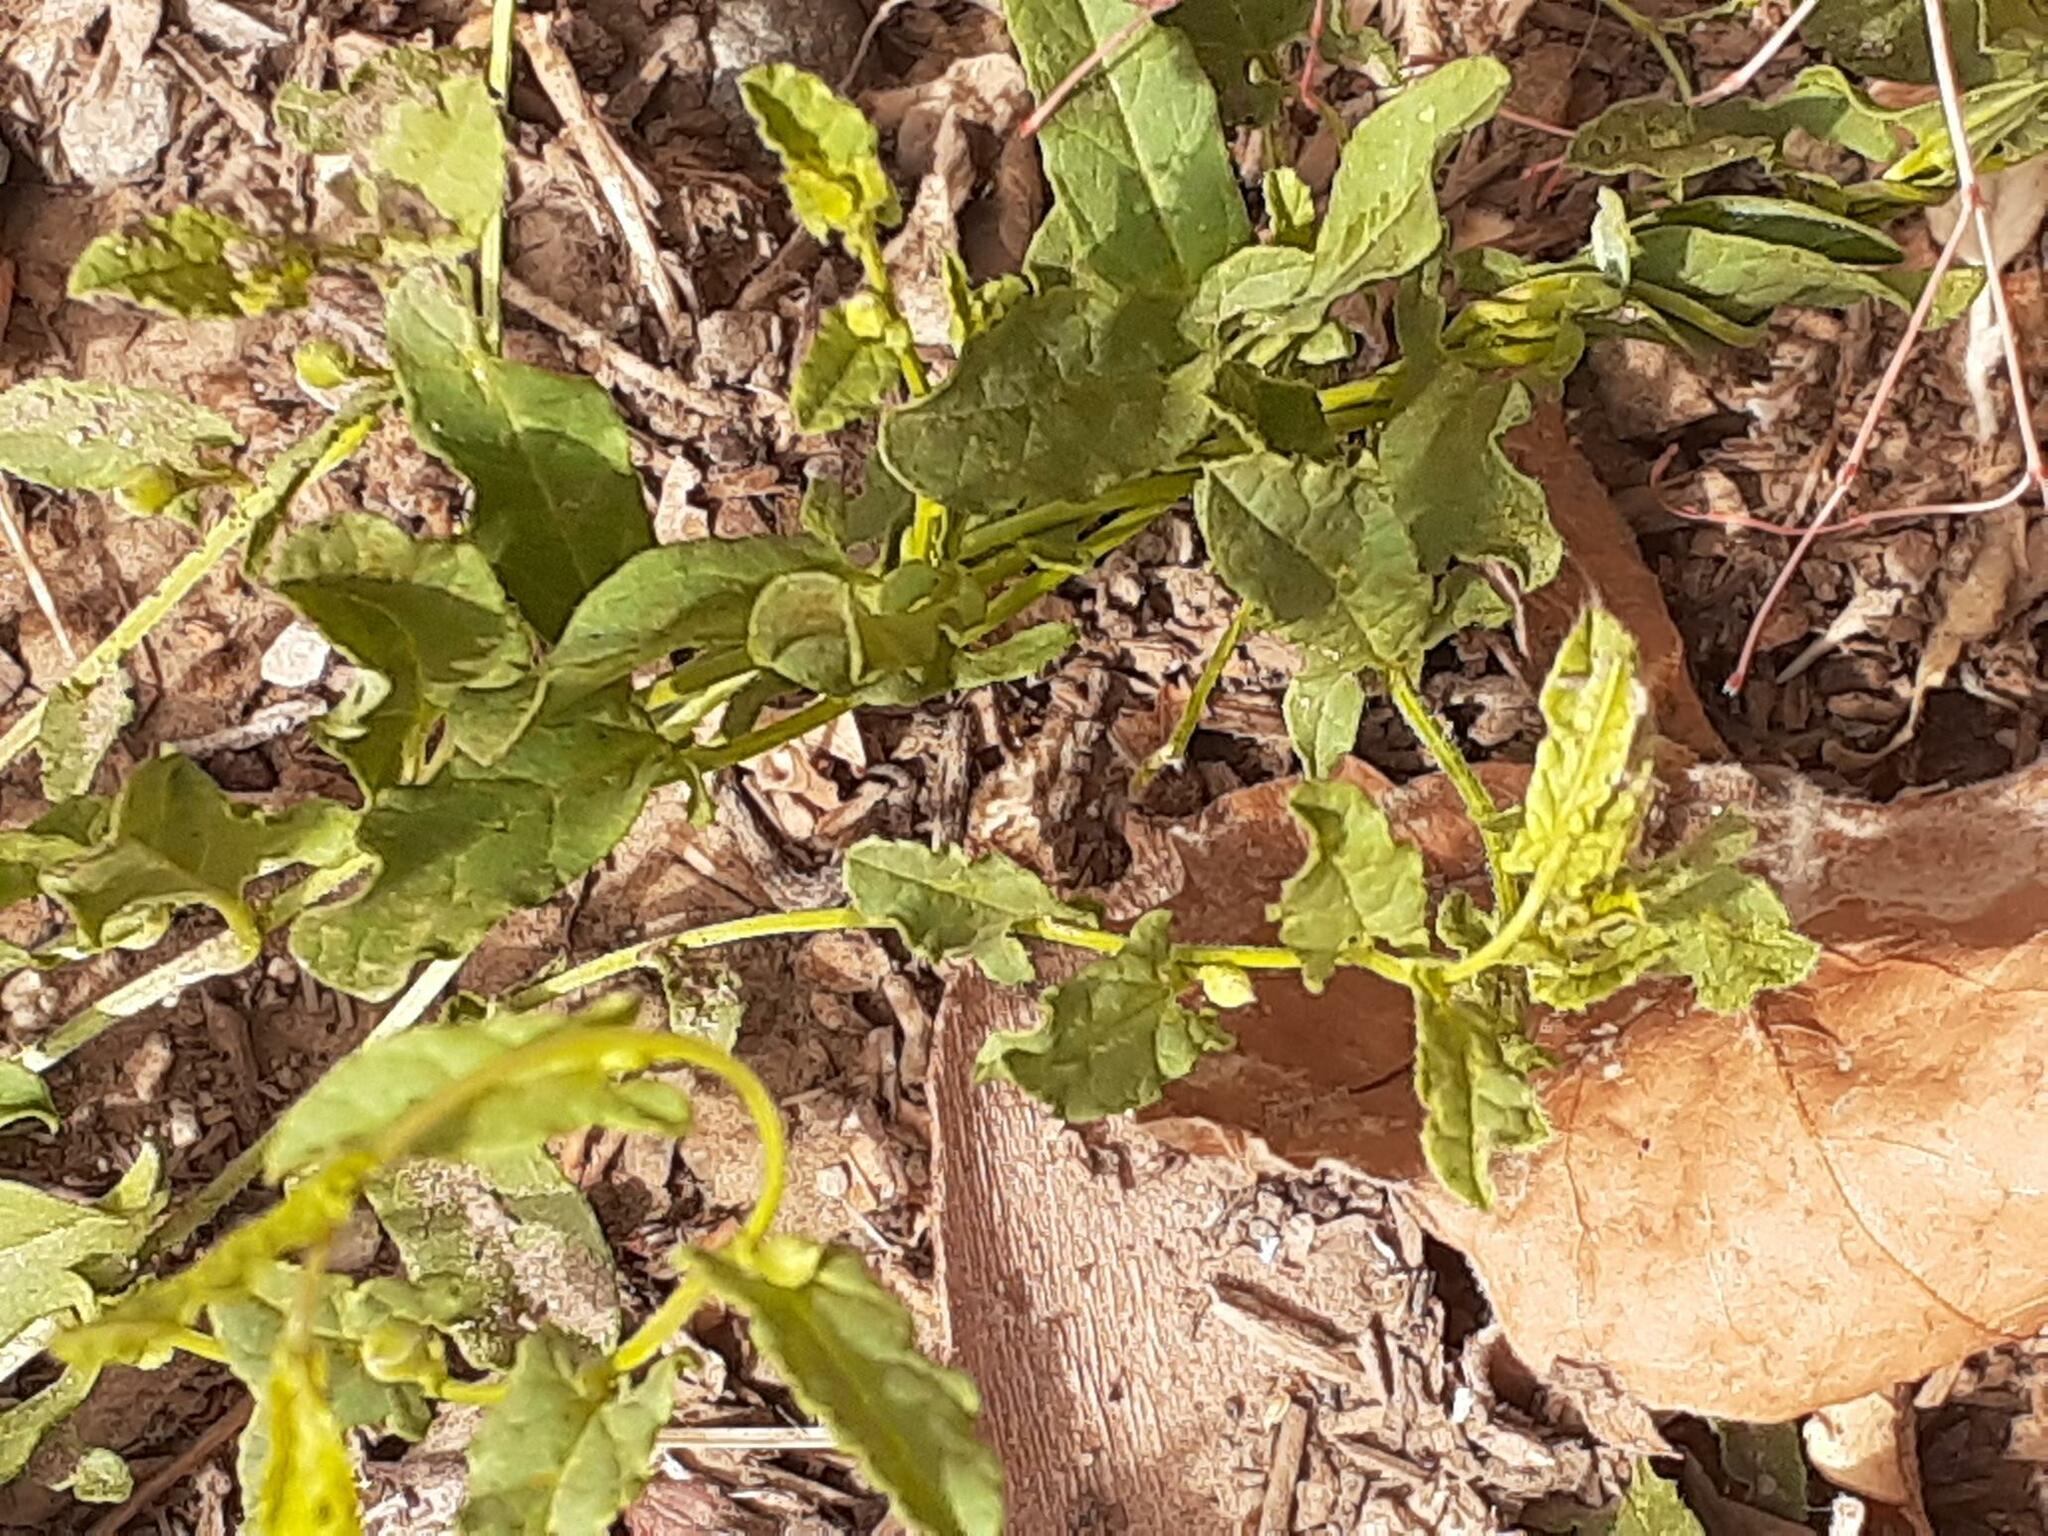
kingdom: Plantae
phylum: Tracheophyta
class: Magnoliopsida
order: Solanales
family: Convolvulaceae
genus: Convolvulus
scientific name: Convolvulus arvensis
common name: Field bindweed
